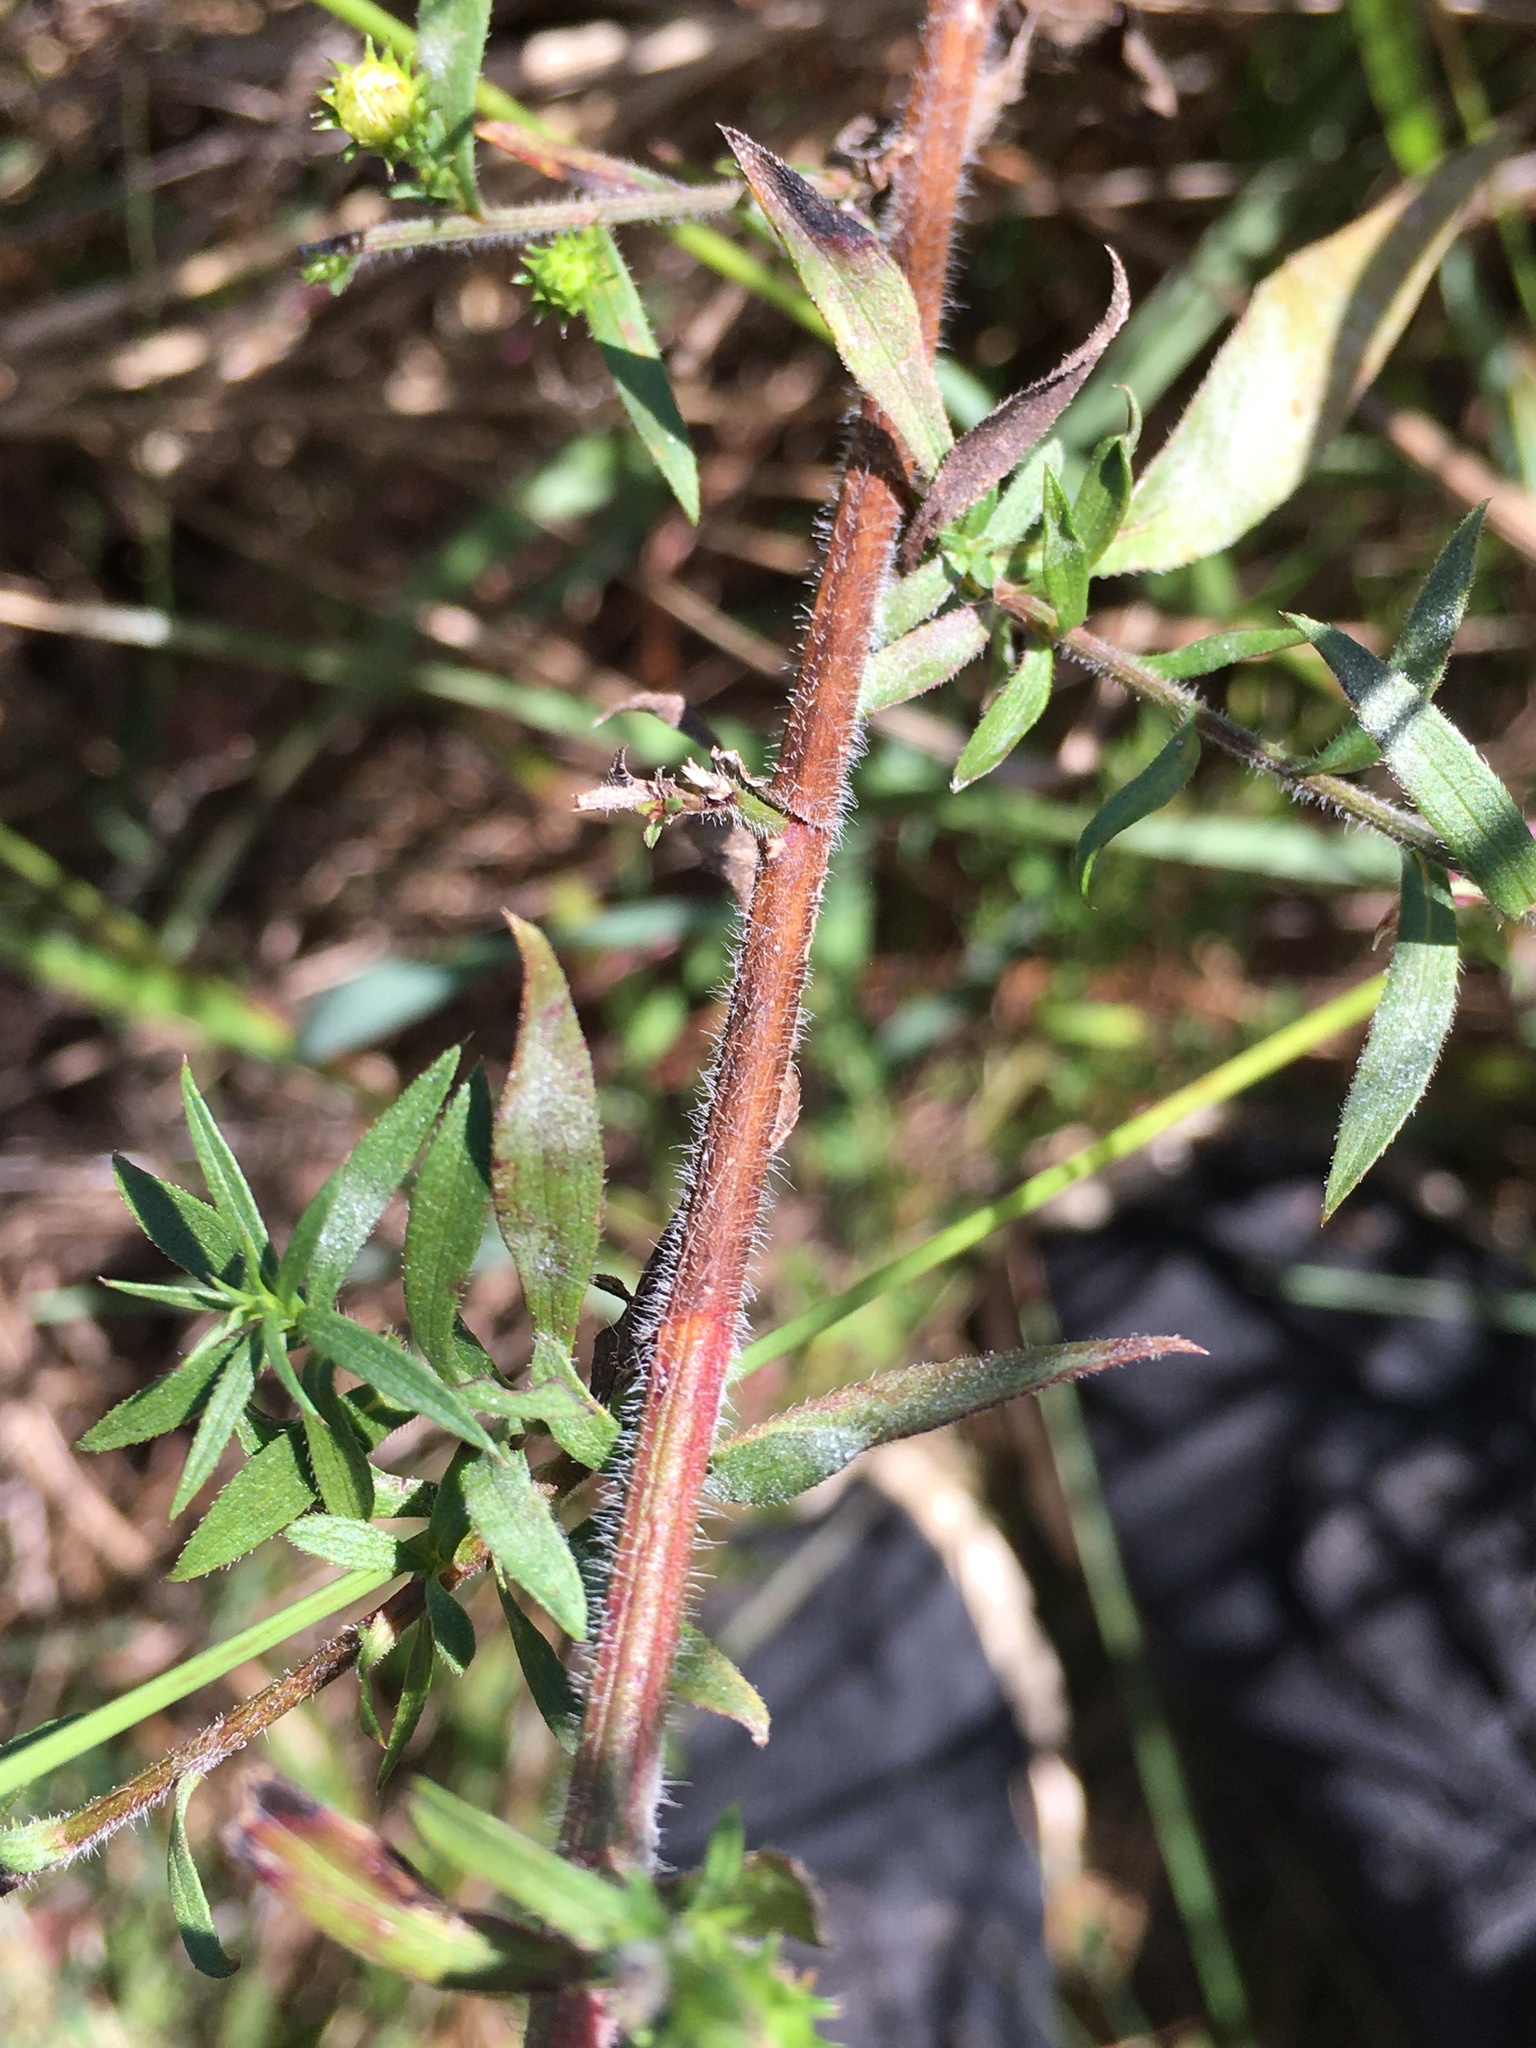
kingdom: Plantae
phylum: Tracheophyta
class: Magnoliopsida
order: Asterales
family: Asteraceae
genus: Symphyotrichum
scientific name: Symphyotrichum pilosum
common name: Awl aster
